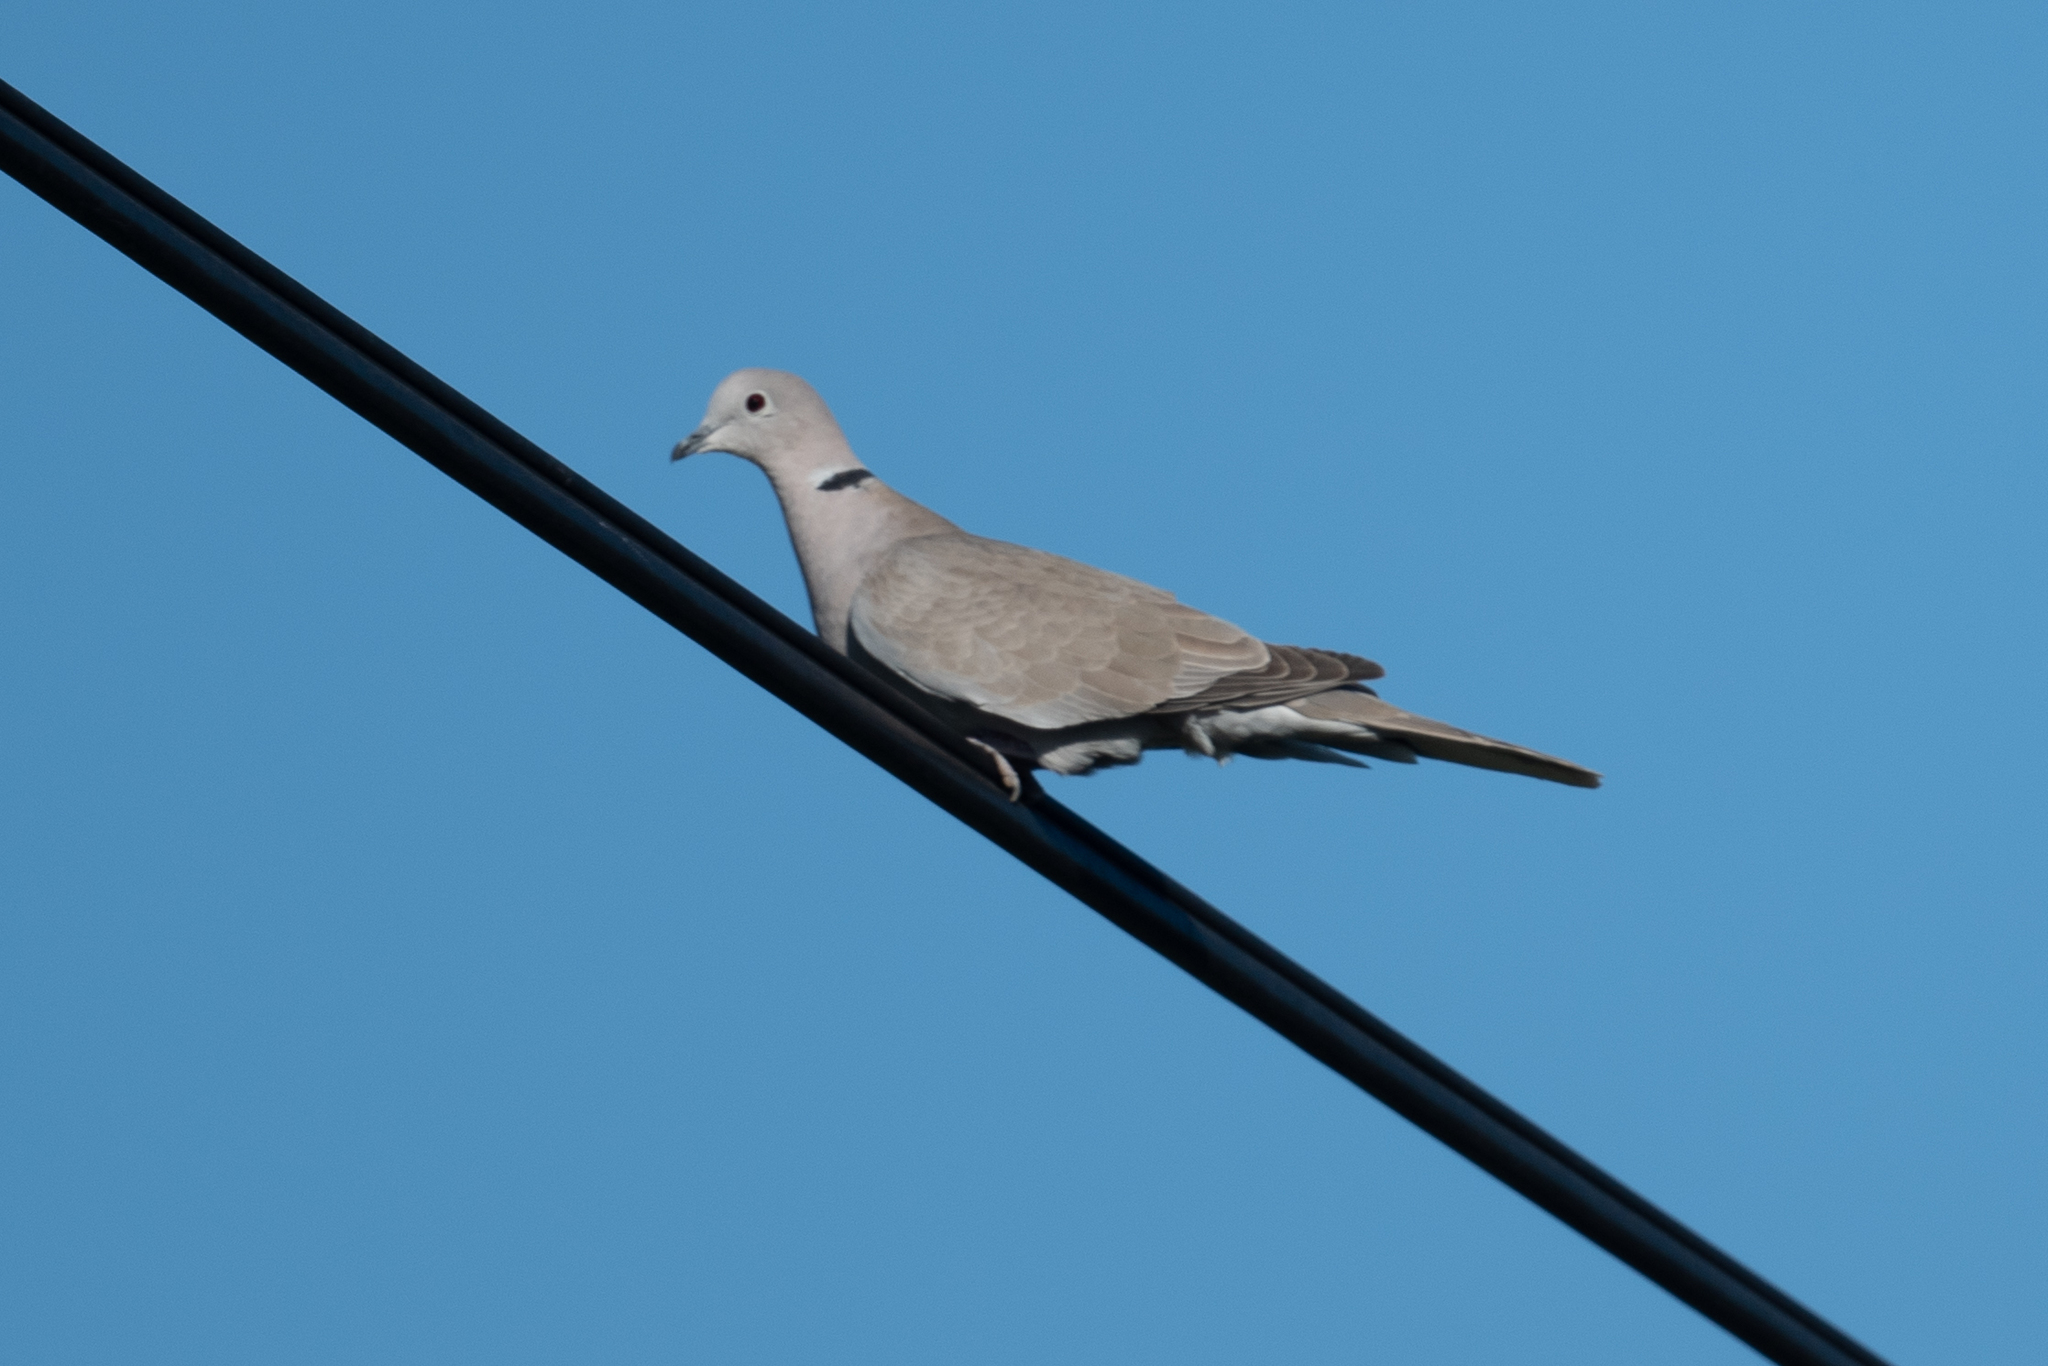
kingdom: Animalia
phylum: Chordata
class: Aves
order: Columbiformes
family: Columbidae
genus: Streptopelia
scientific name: Streptopelia decaocto
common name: Eurasian collared dove
